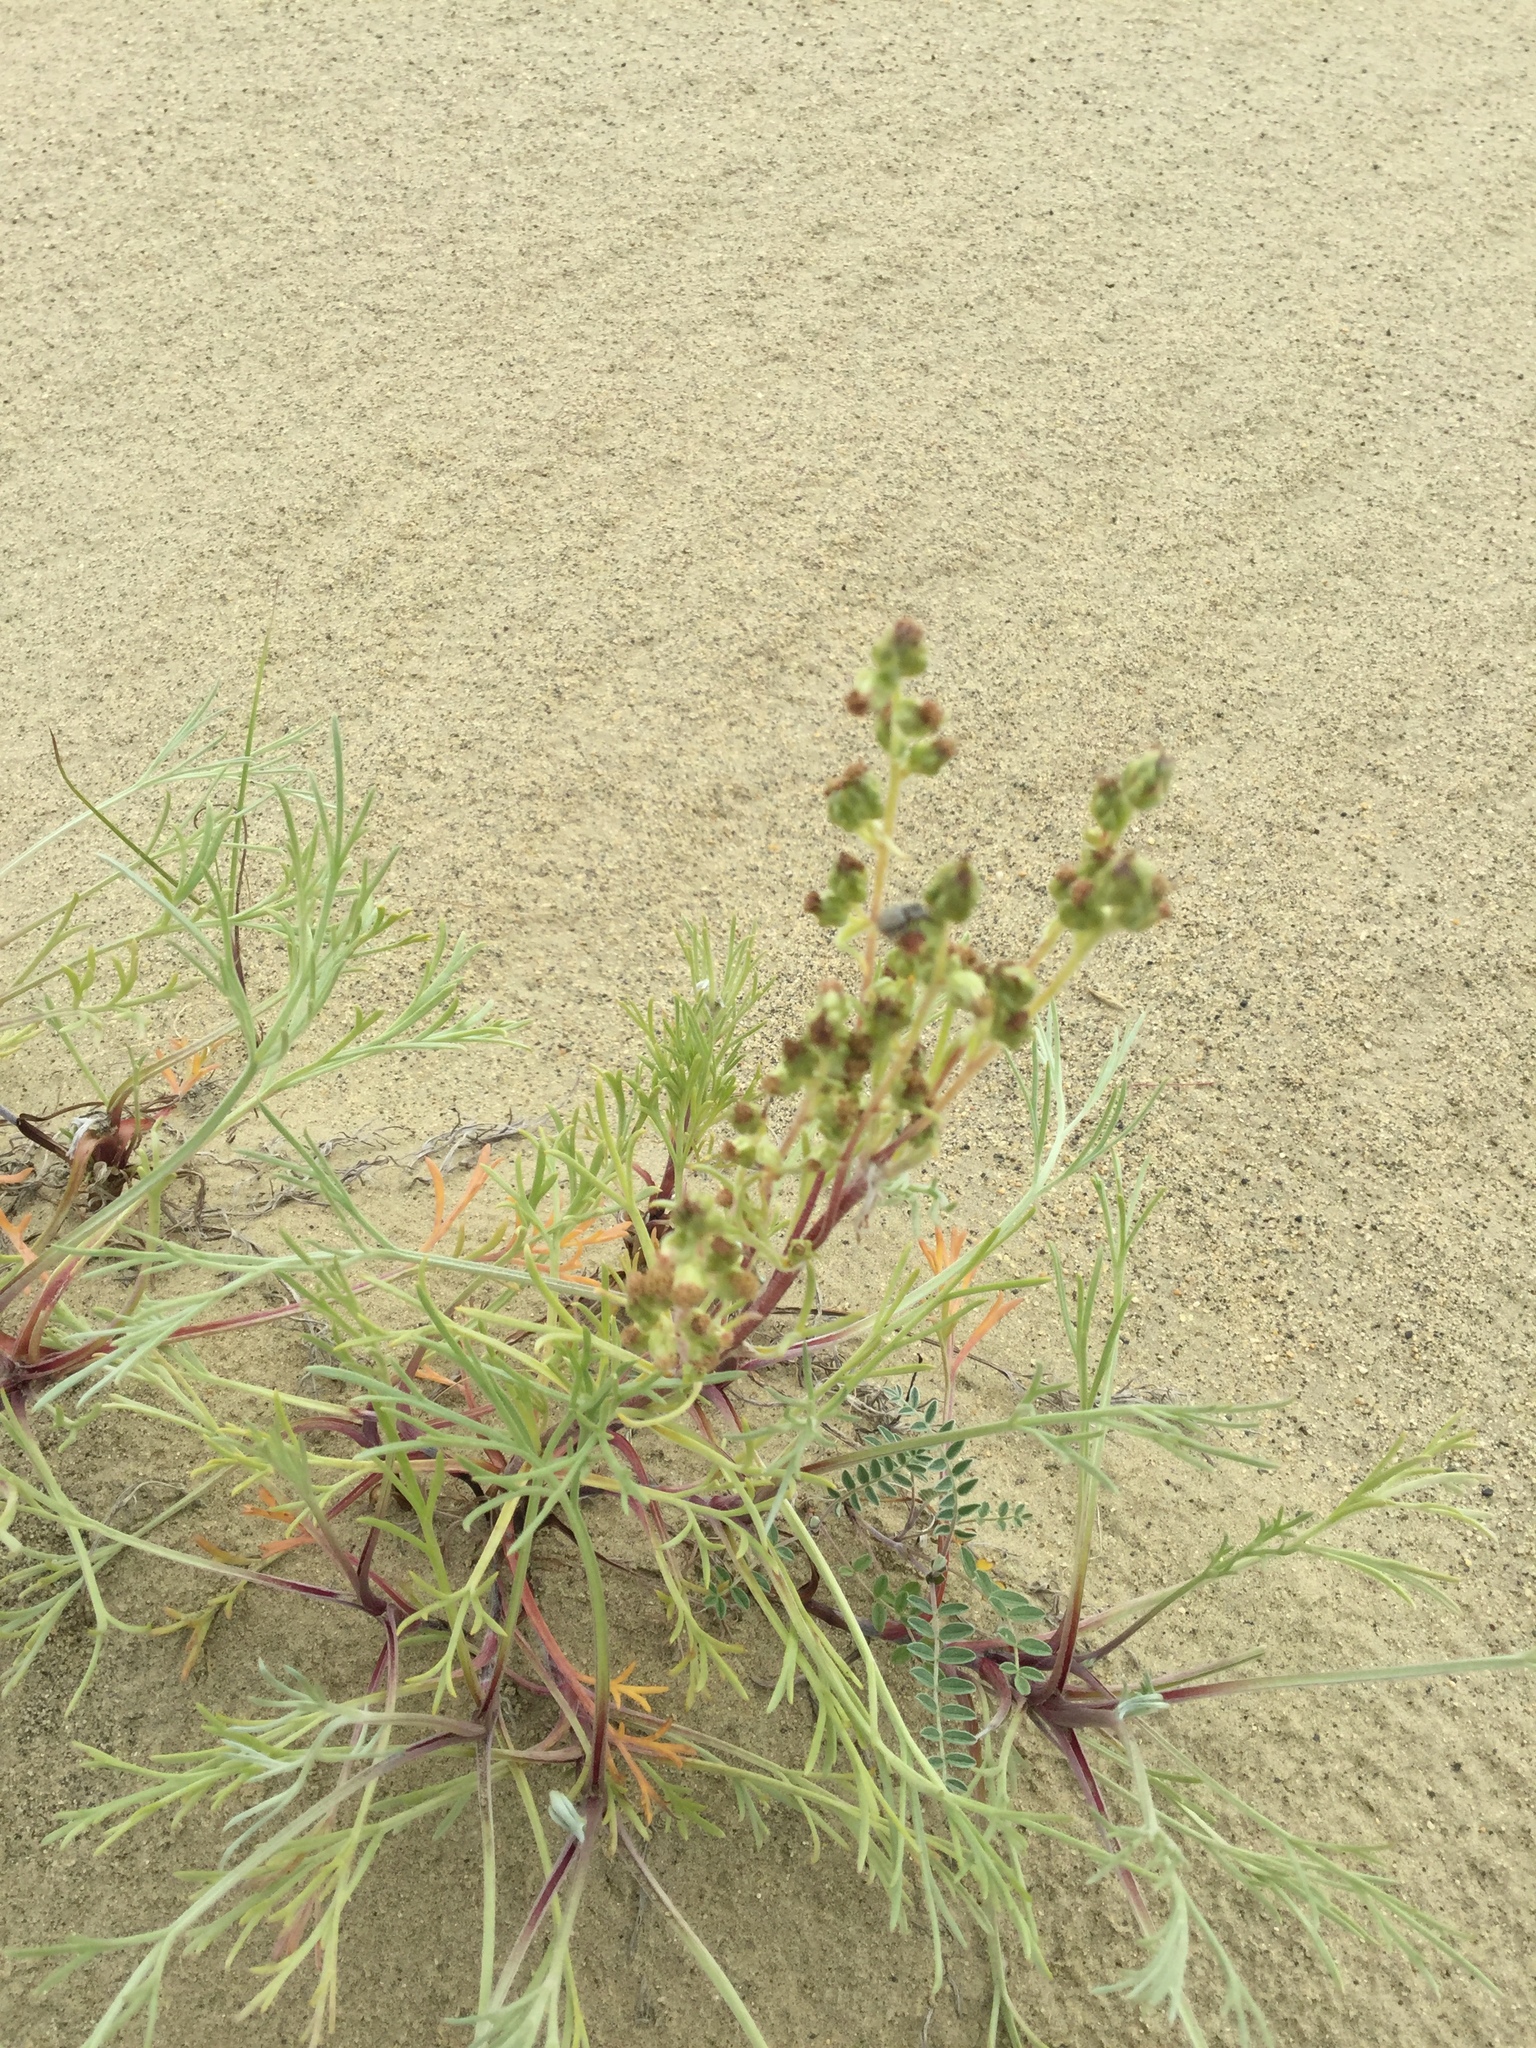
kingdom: Plantae
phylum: Tracheophyta
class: Magnoliopsida
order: Asterales
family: Asteraceae
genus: Artemisia
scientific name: Artemisia borealis
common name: Boreal sage
